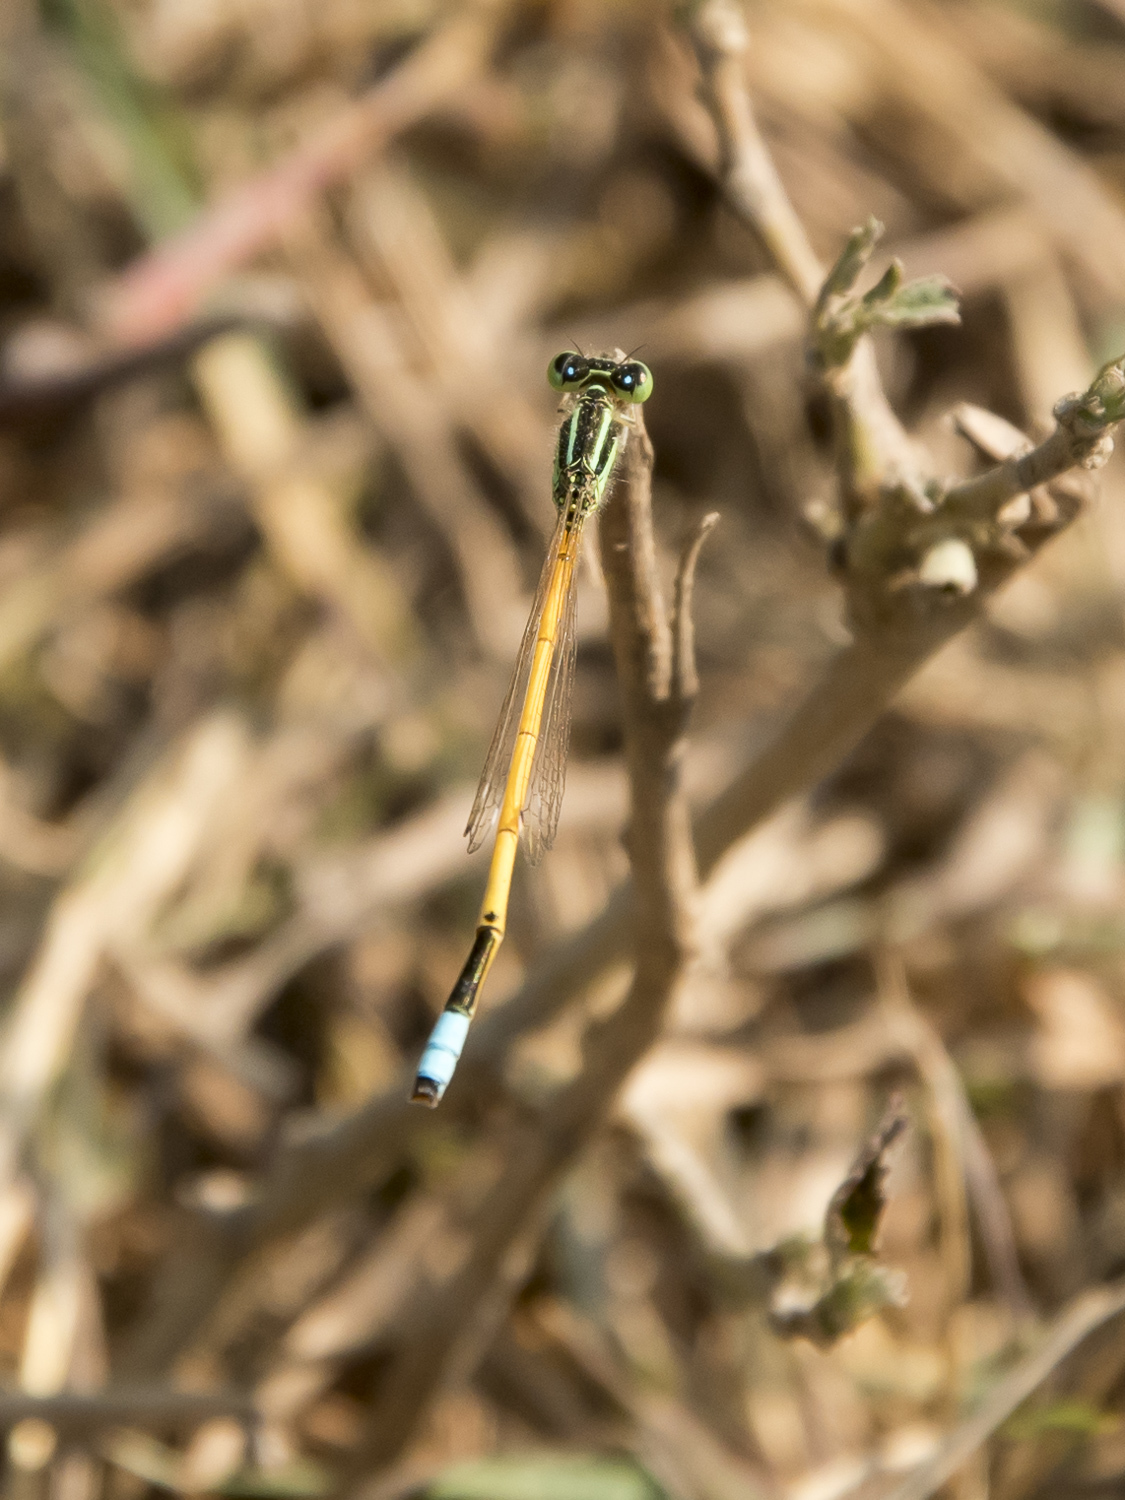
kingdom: Animalia
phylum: Arthropoda
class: Insecta
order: Odonata
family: Coenagrionidae
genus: Ischnura
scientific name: Ischnura rubilio
